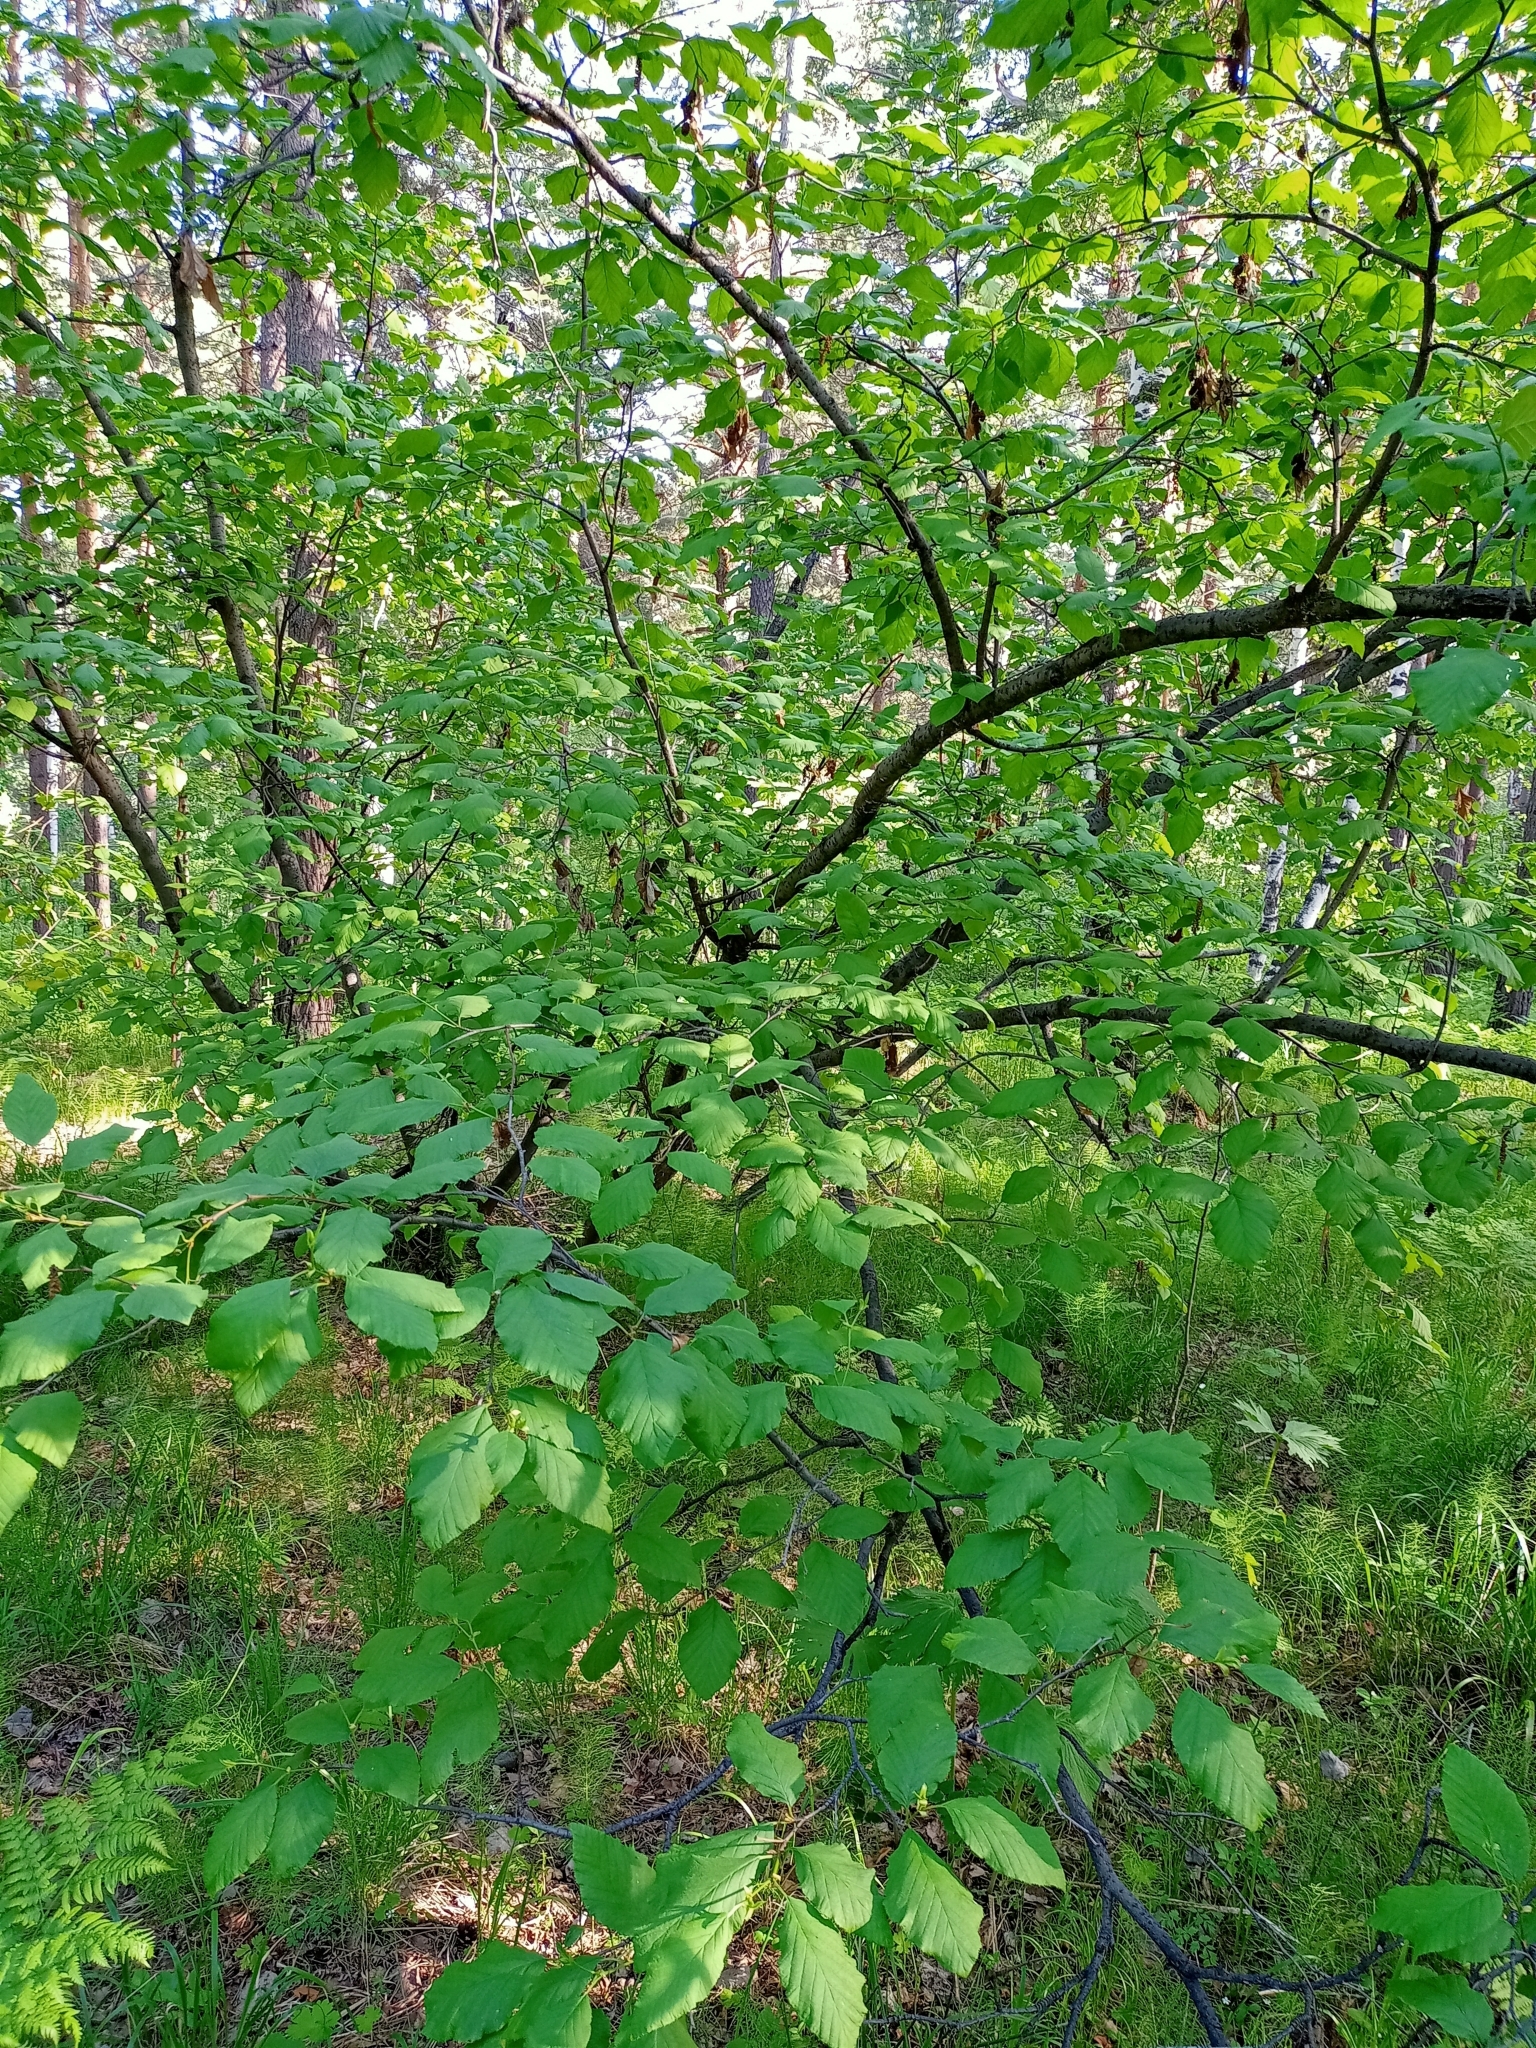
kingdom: Plantae
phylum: Tracheophyta
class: Magnoliopsida
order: Fagales
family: Betulaceae
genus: Alnus
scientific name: Alnus alnobetula
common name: Green alder
